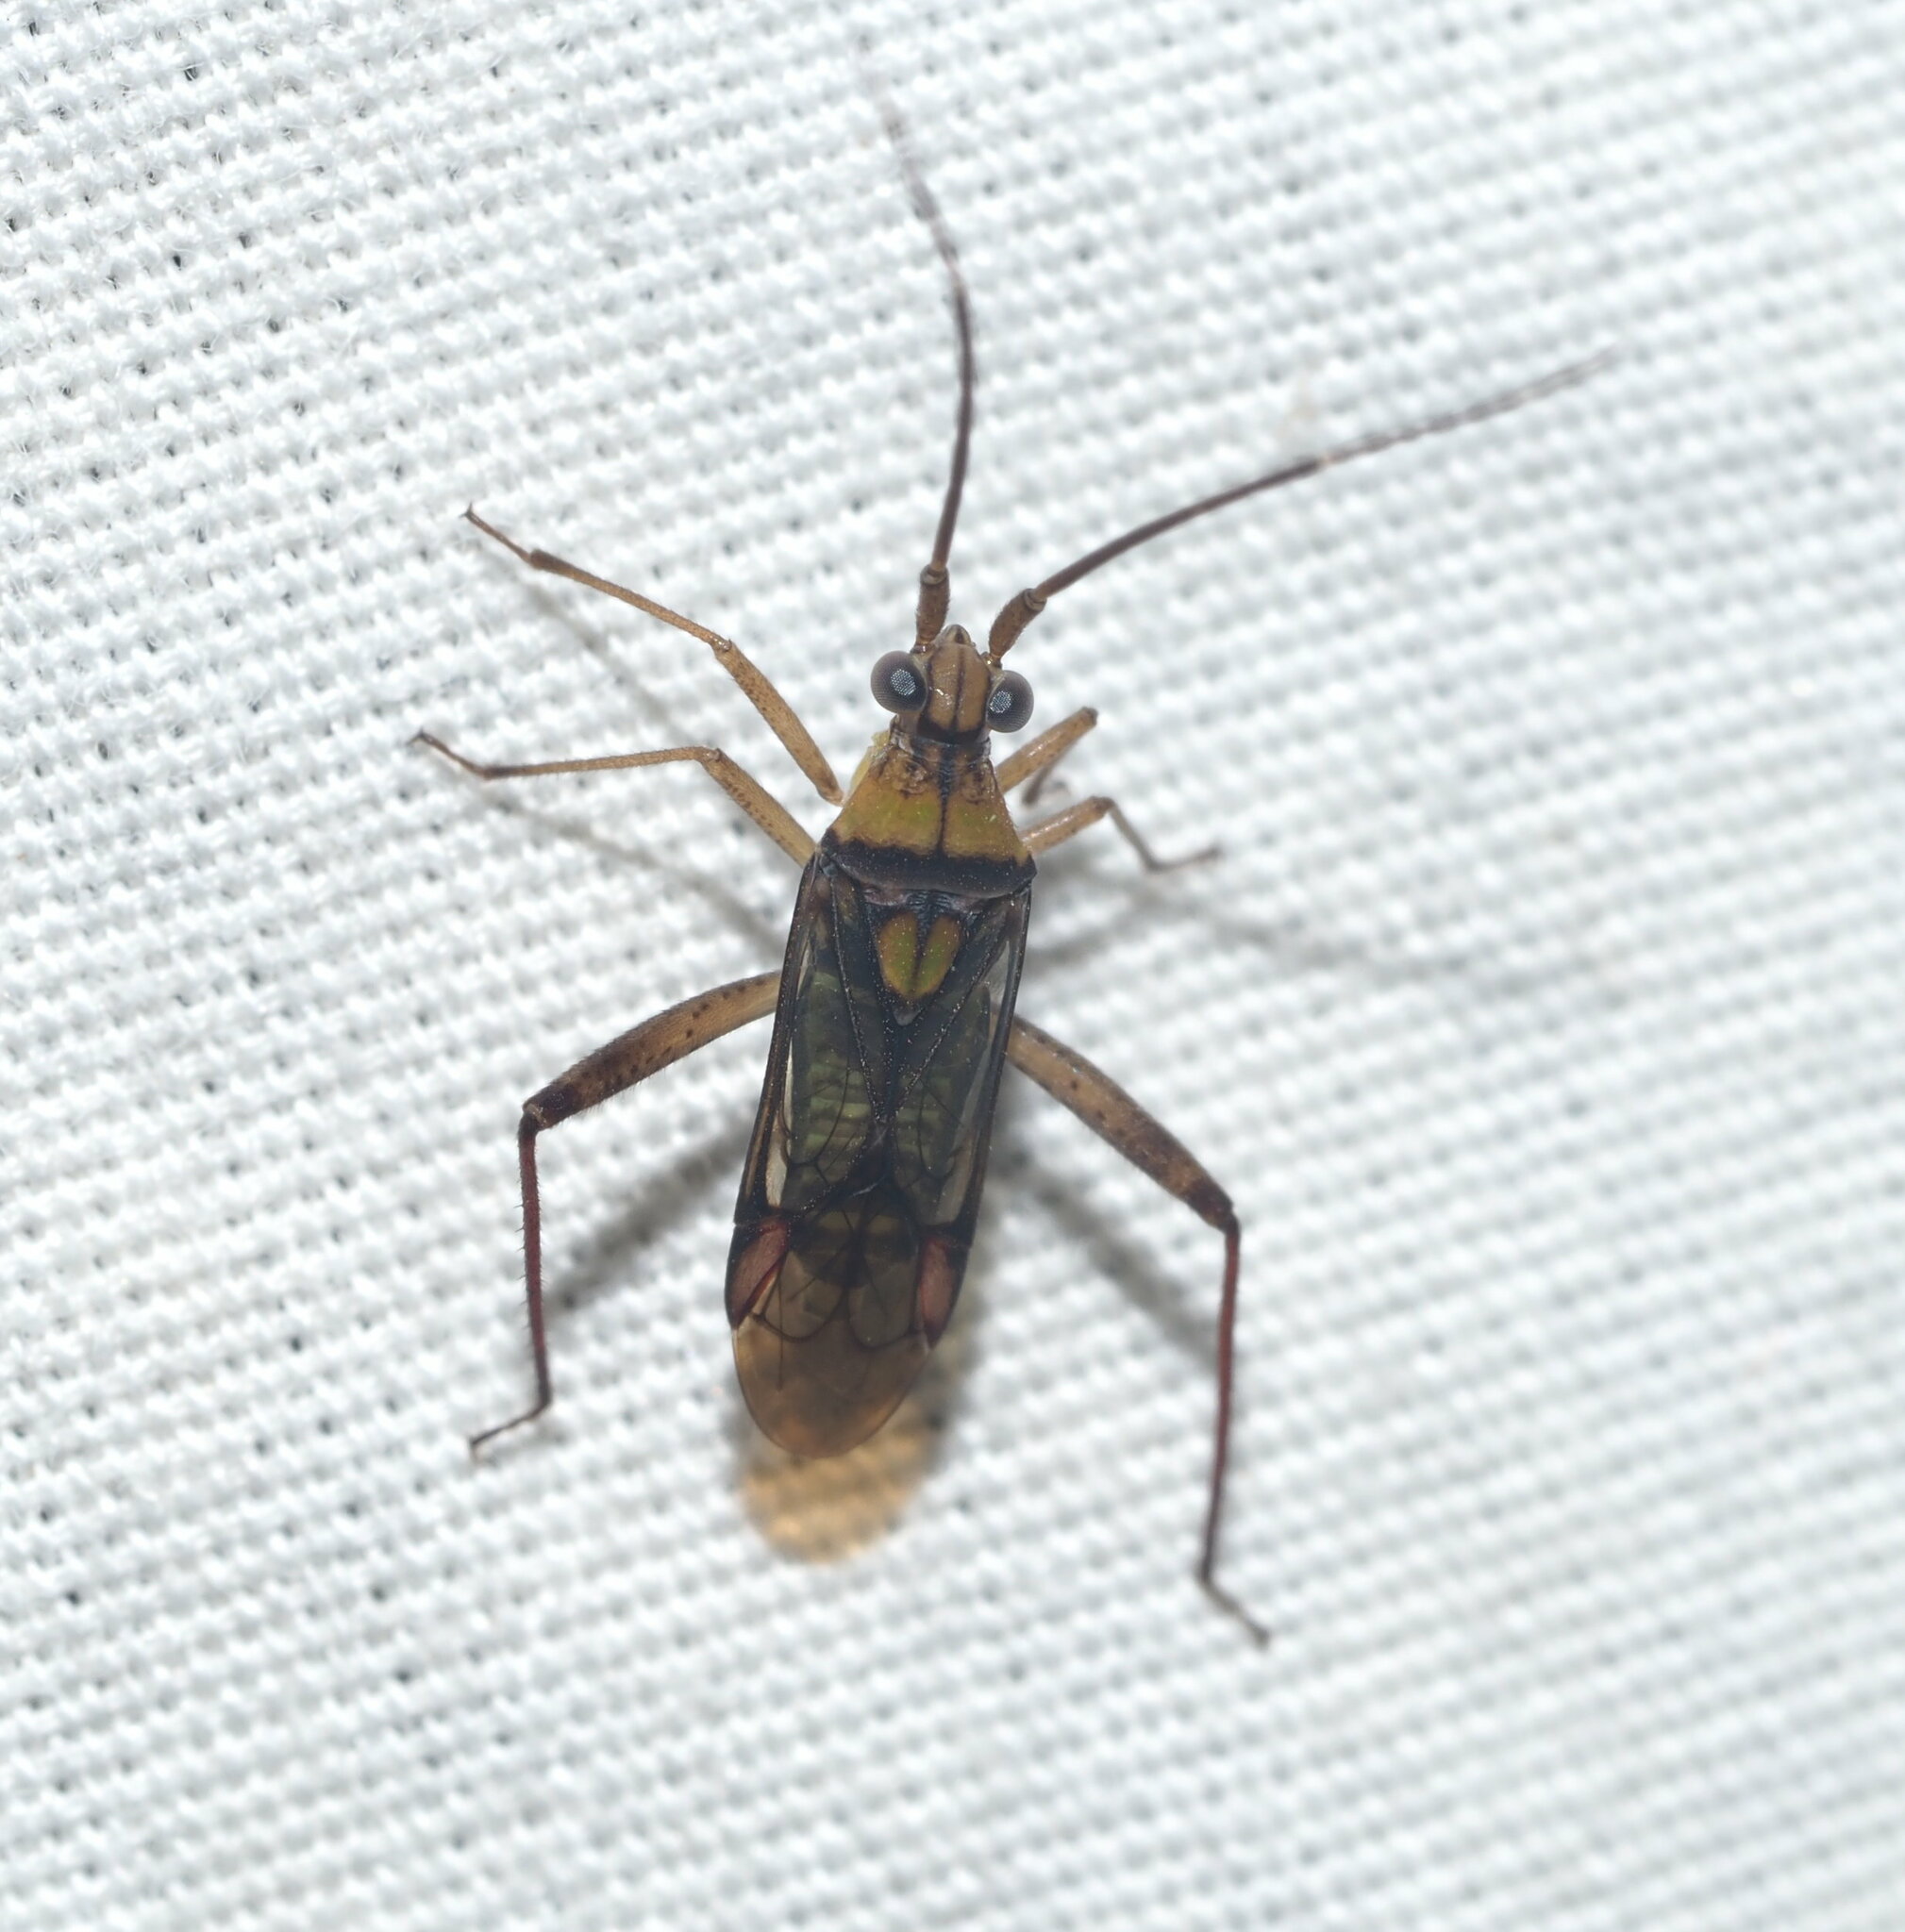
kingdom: Animalia
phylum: Arthropoda
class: Insecta
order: Hemiptera
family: Miridae
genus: Hyalopeplus
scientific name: Hyalopeplus pellucidus
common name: Plant bug
